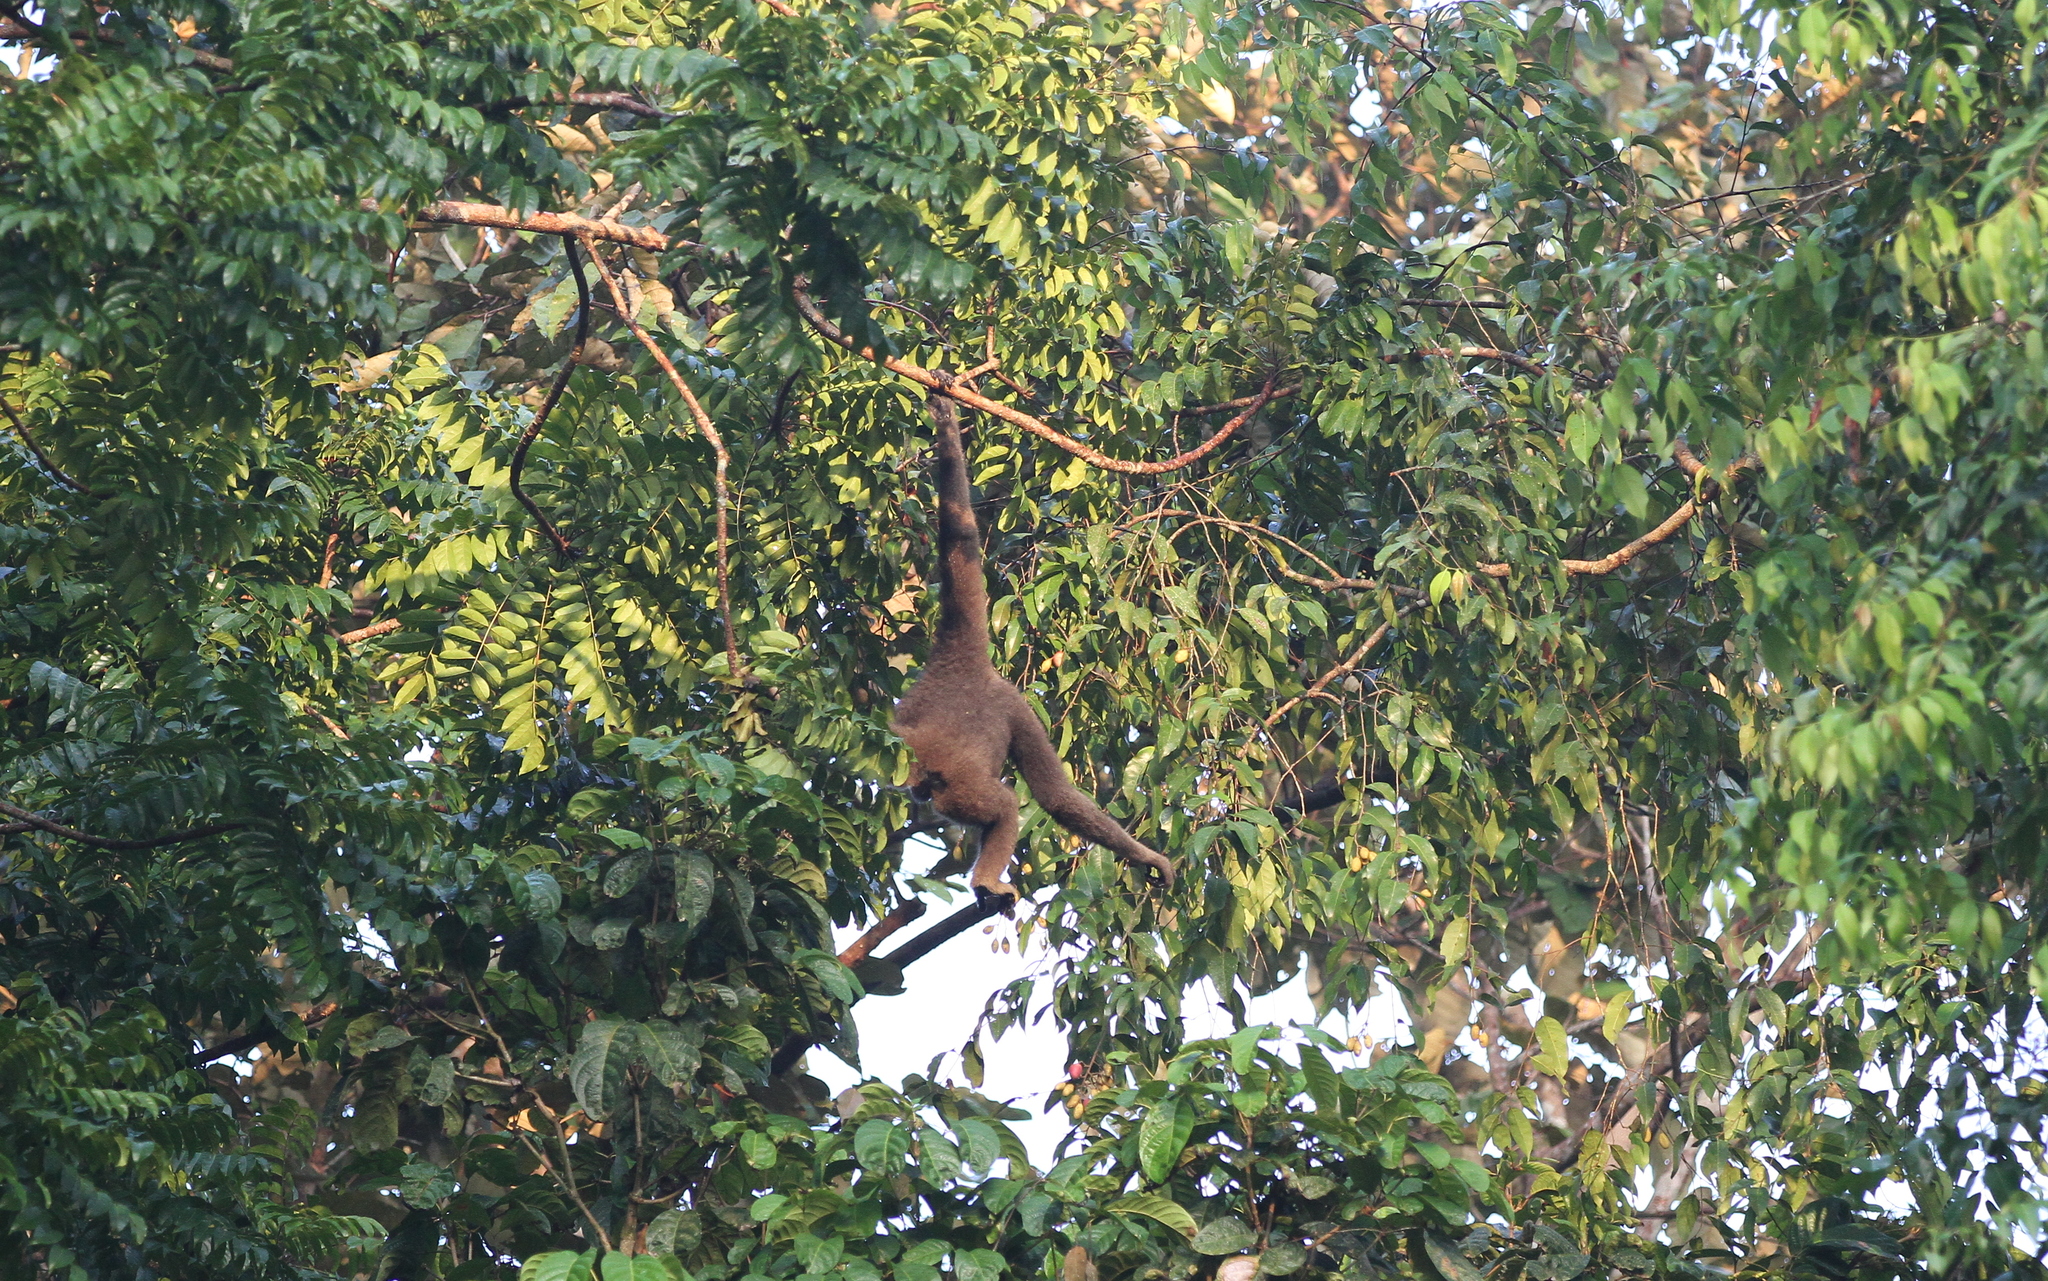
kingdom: Animalia
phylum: Chordata
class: Mammalia
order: Primates
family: Hylobatidae
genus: Hylobates
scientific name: Hylobates funereus
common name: East bornean gray gibbon
